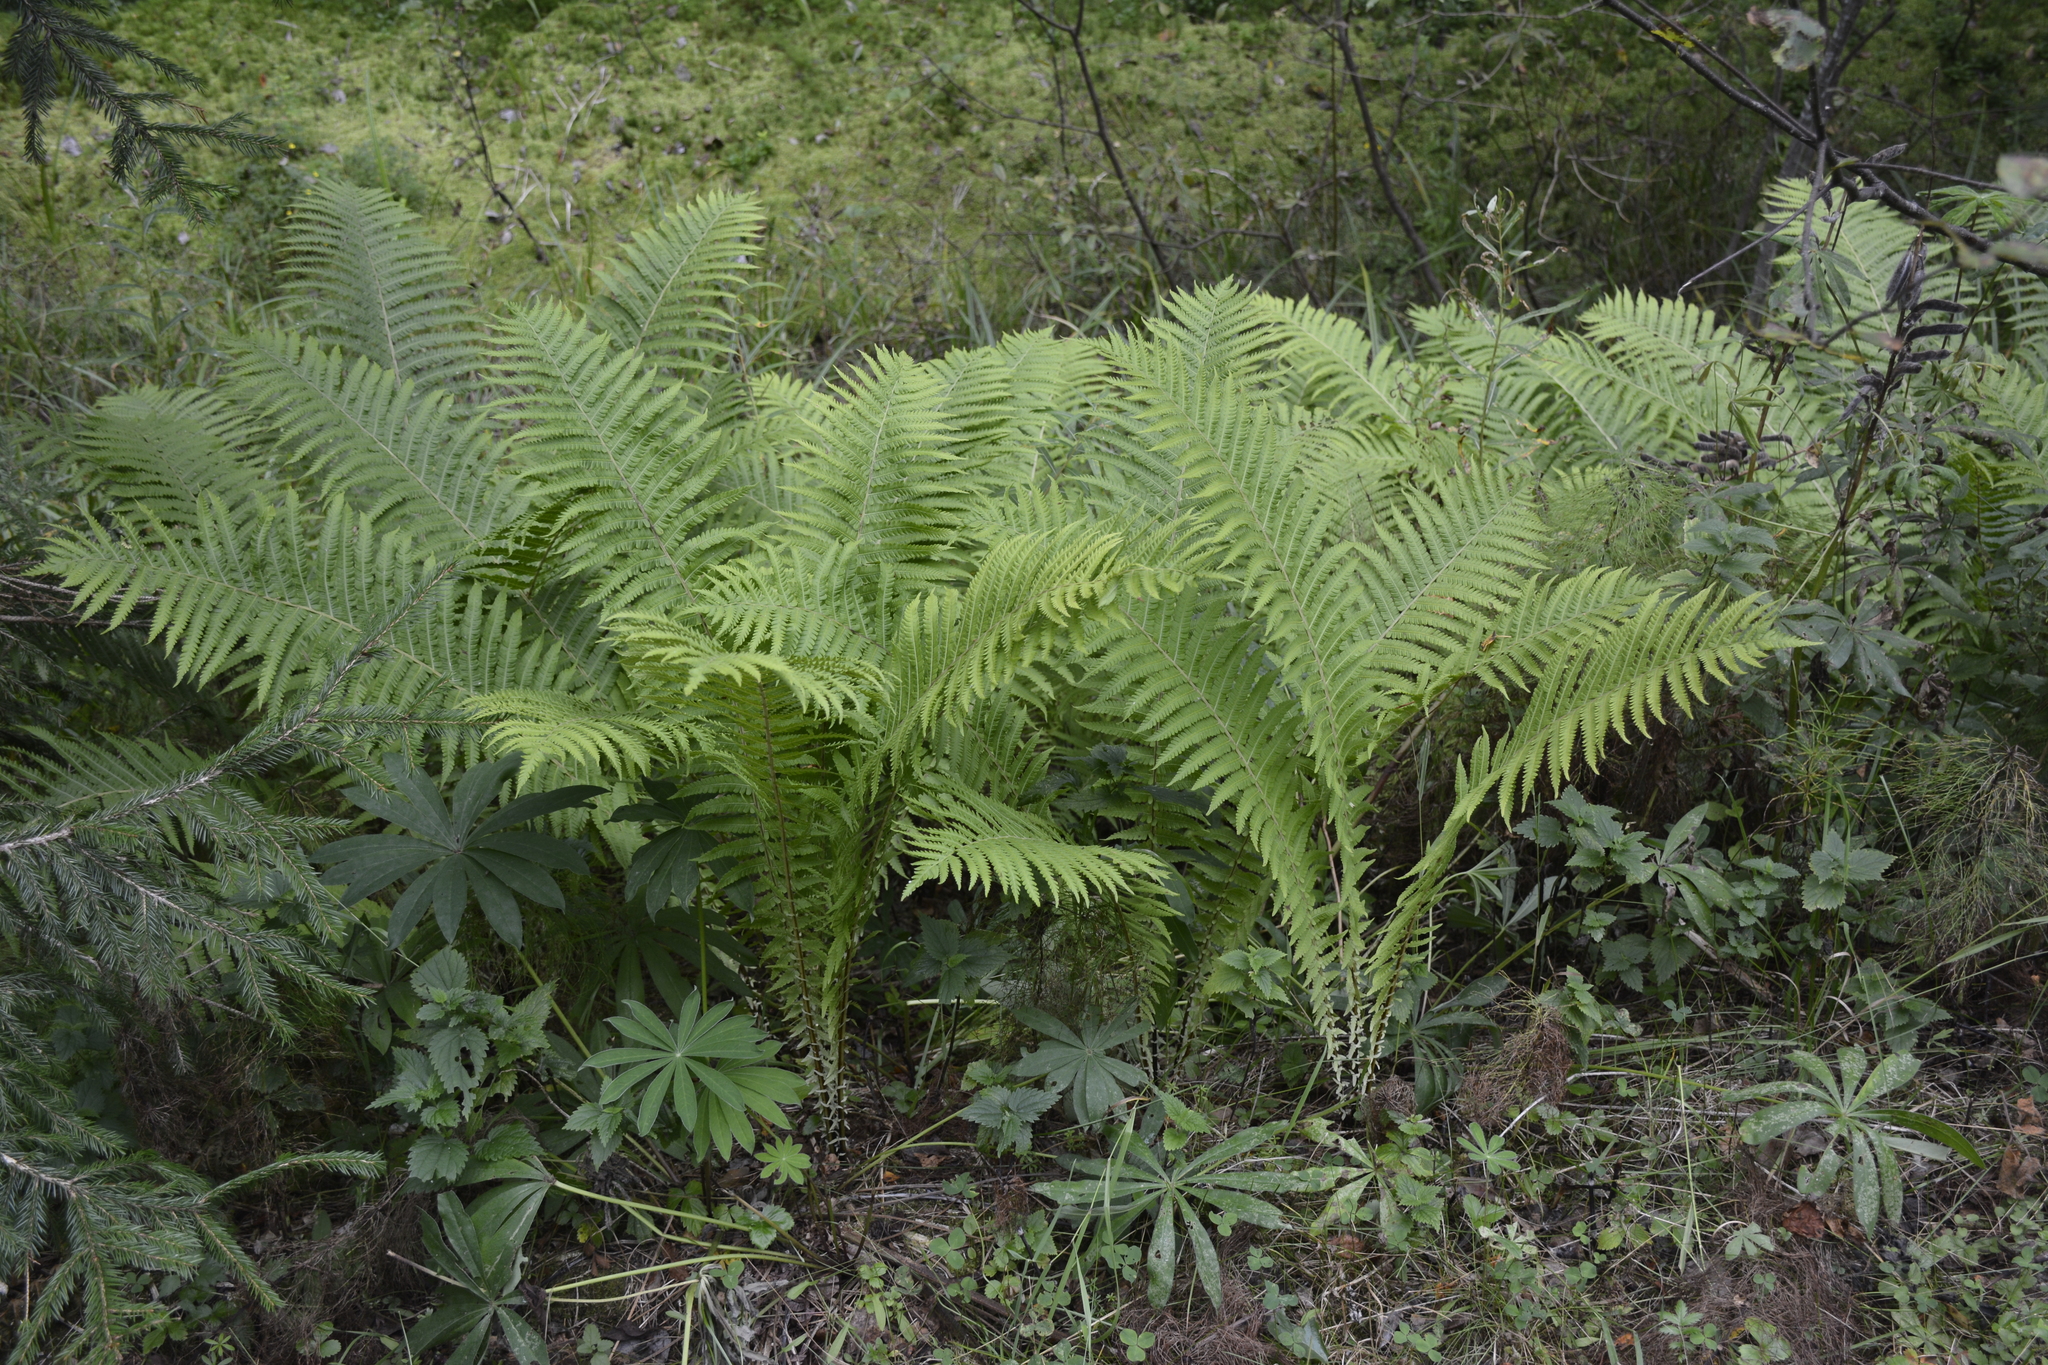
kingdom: Plantae
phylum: Tracheophyta
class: Polypodiopsida
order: Polypodiales
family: Onocleaceae
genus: Matteuccia
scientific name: Matteuccia struthiopteris
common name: Ostrich fern
